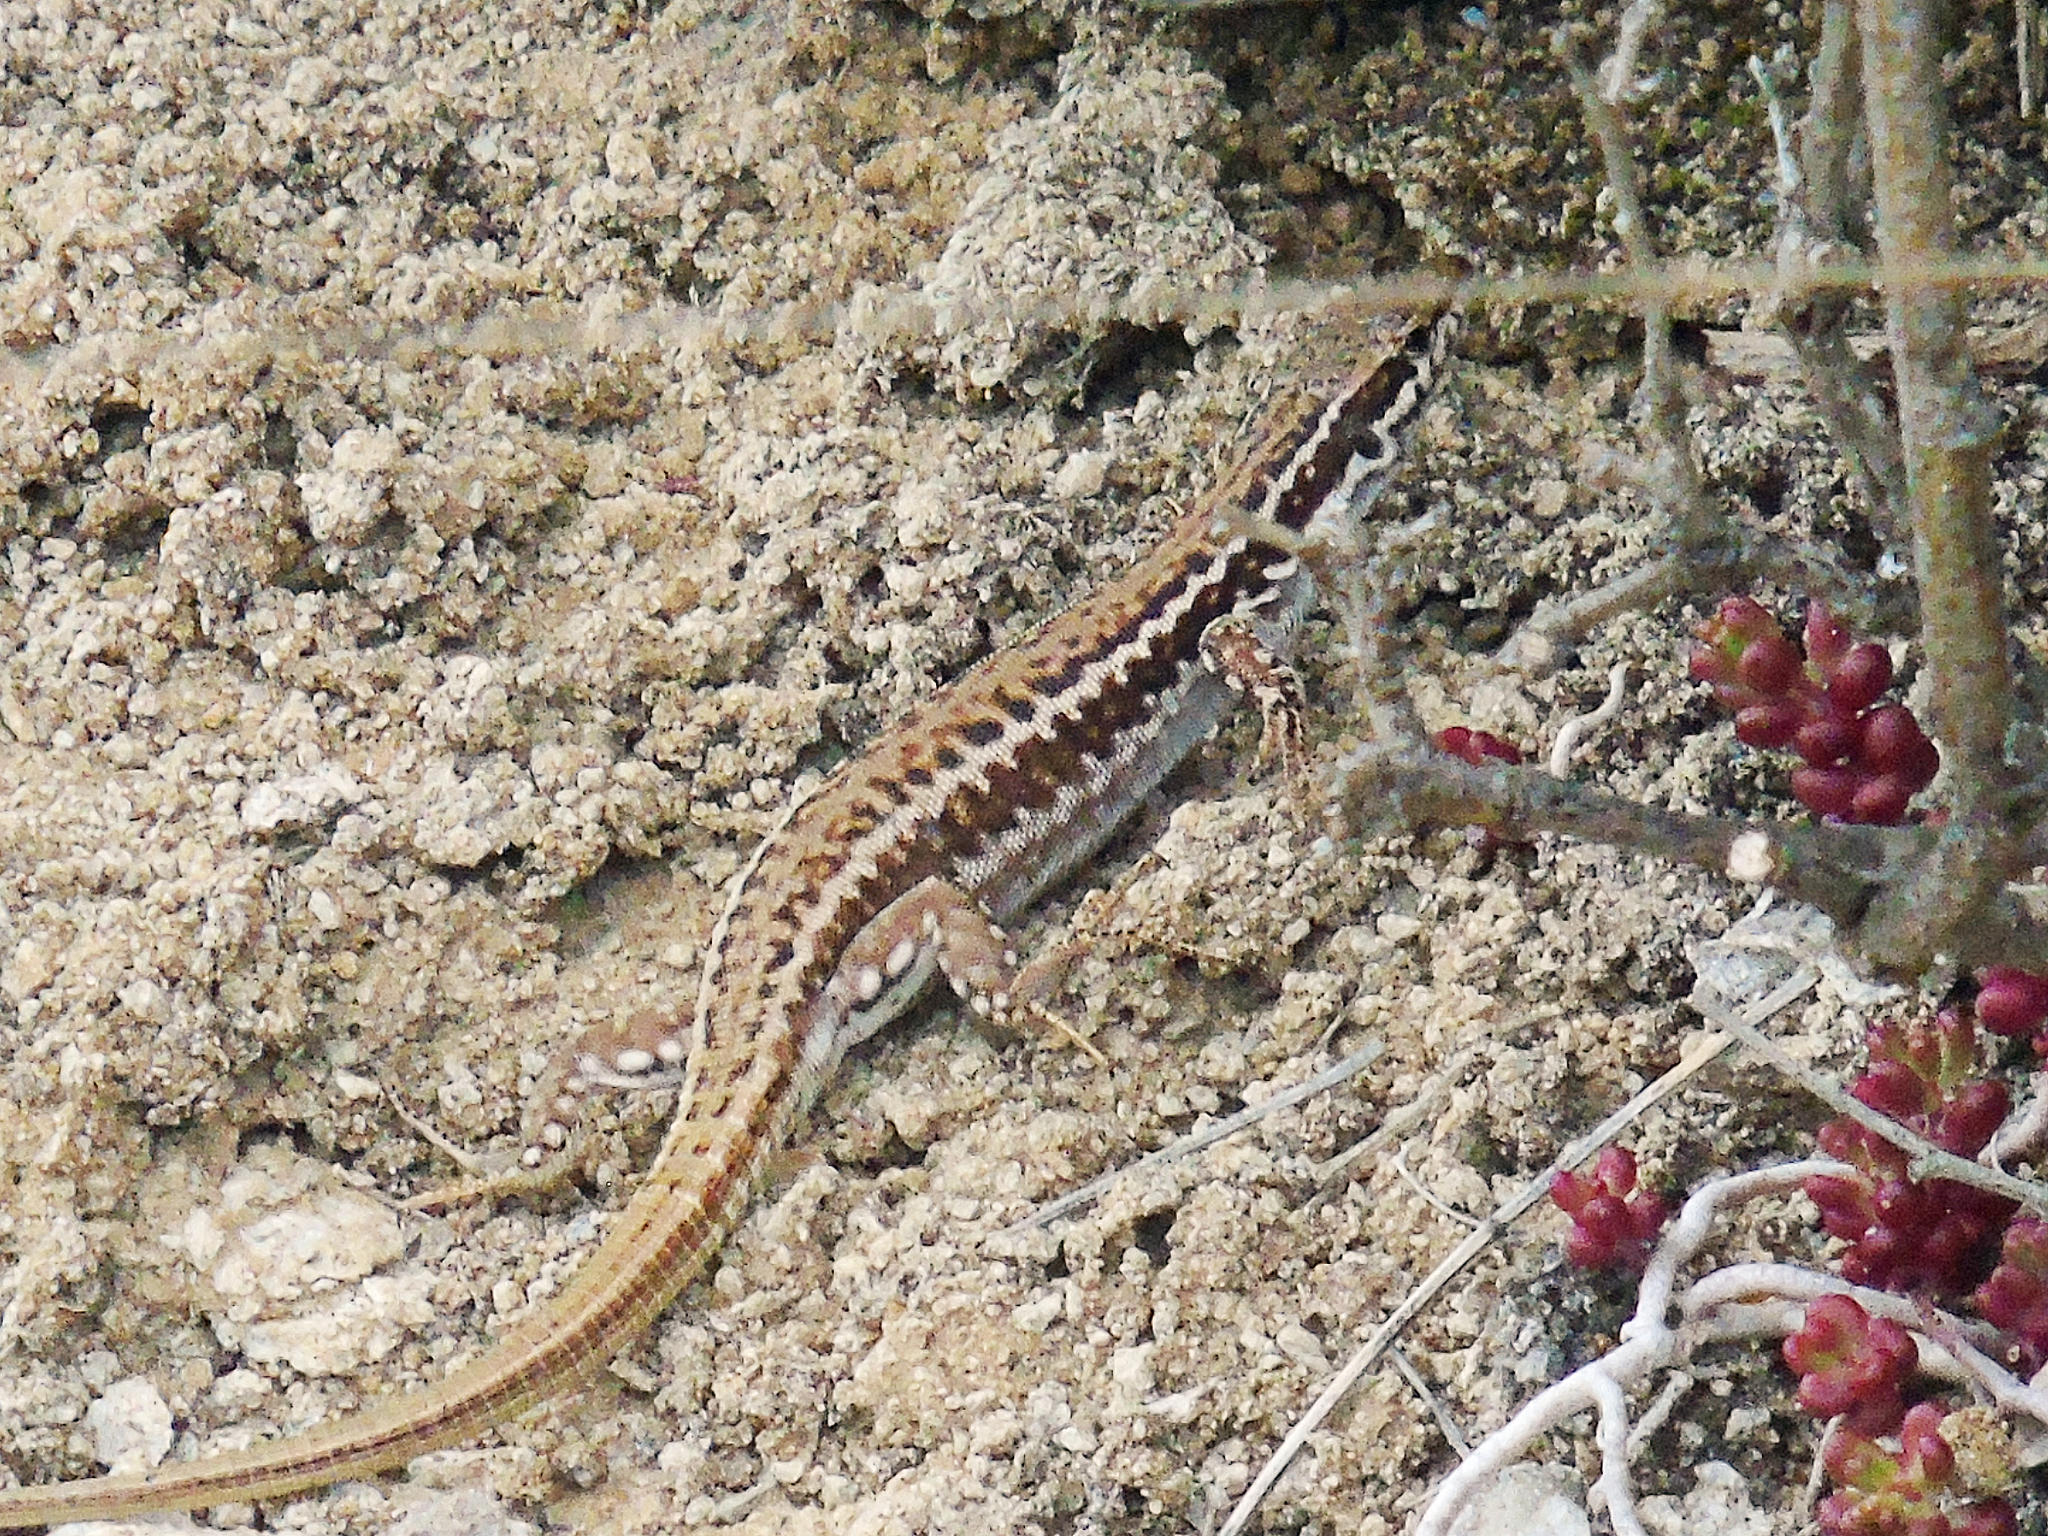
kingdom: Animalia
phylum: Chordata
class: Squamata
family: Lacertidae
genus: Podarcis
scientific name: Podarcis erhardii
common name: Erhard's wall lizard
